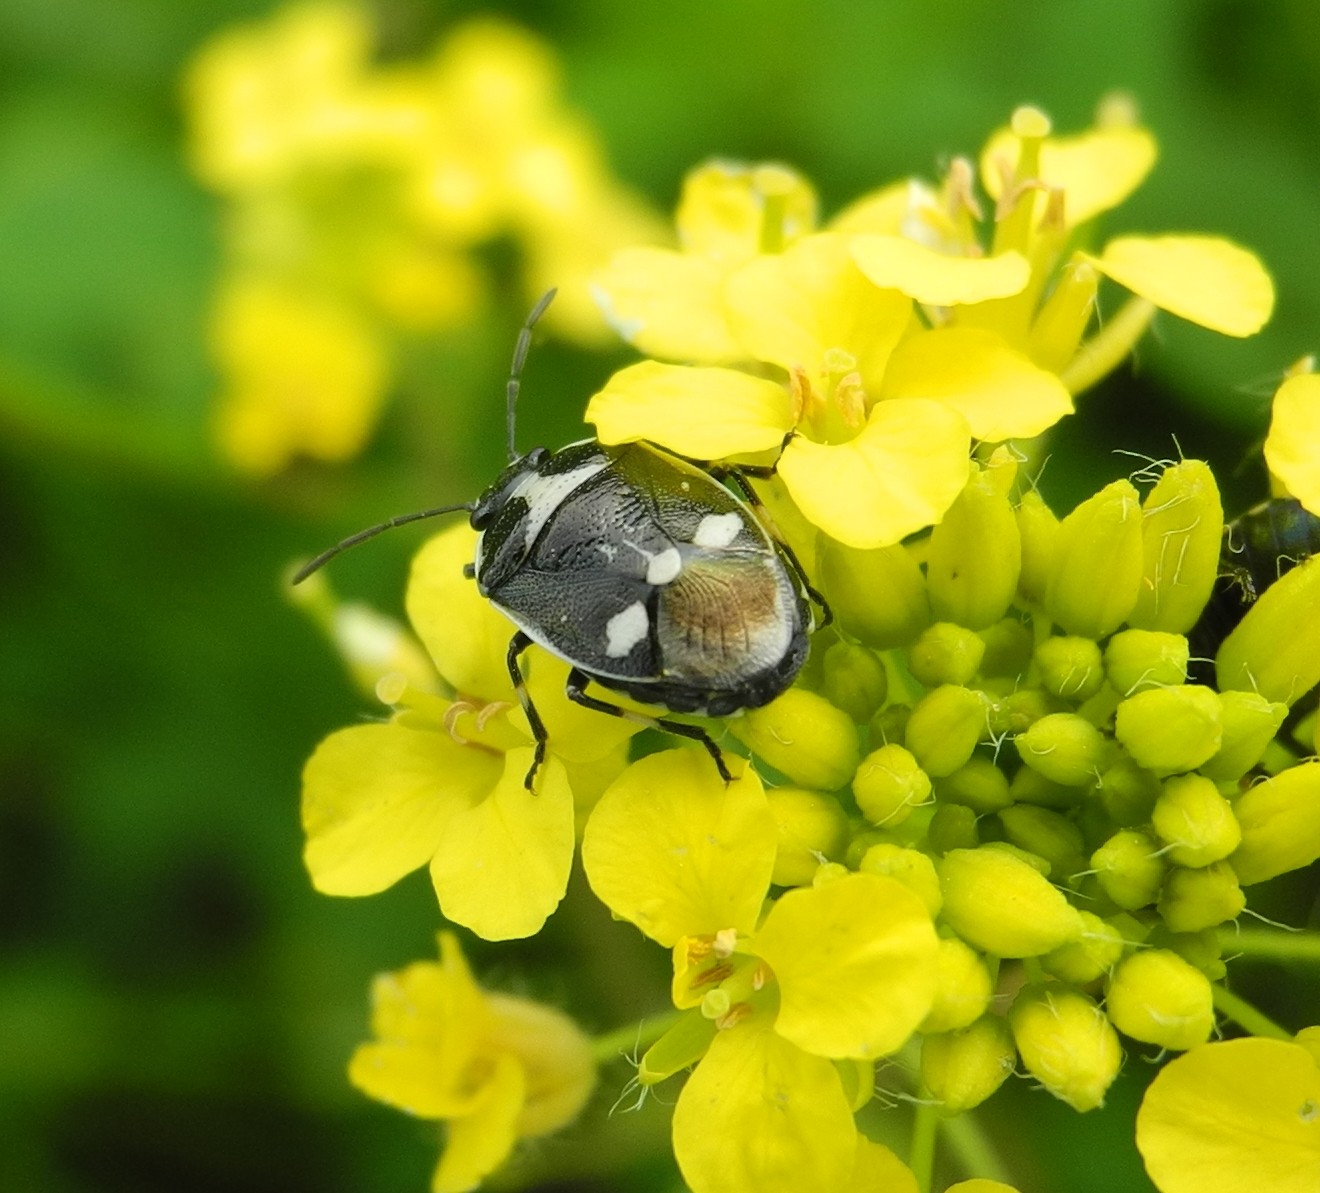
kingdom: Animalia
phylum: Arthropoda
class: Insecta
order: Hemiptera
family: Pentatomidae
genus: Eurydema
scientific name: Eurydema oleracea
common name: Cabbage bug
